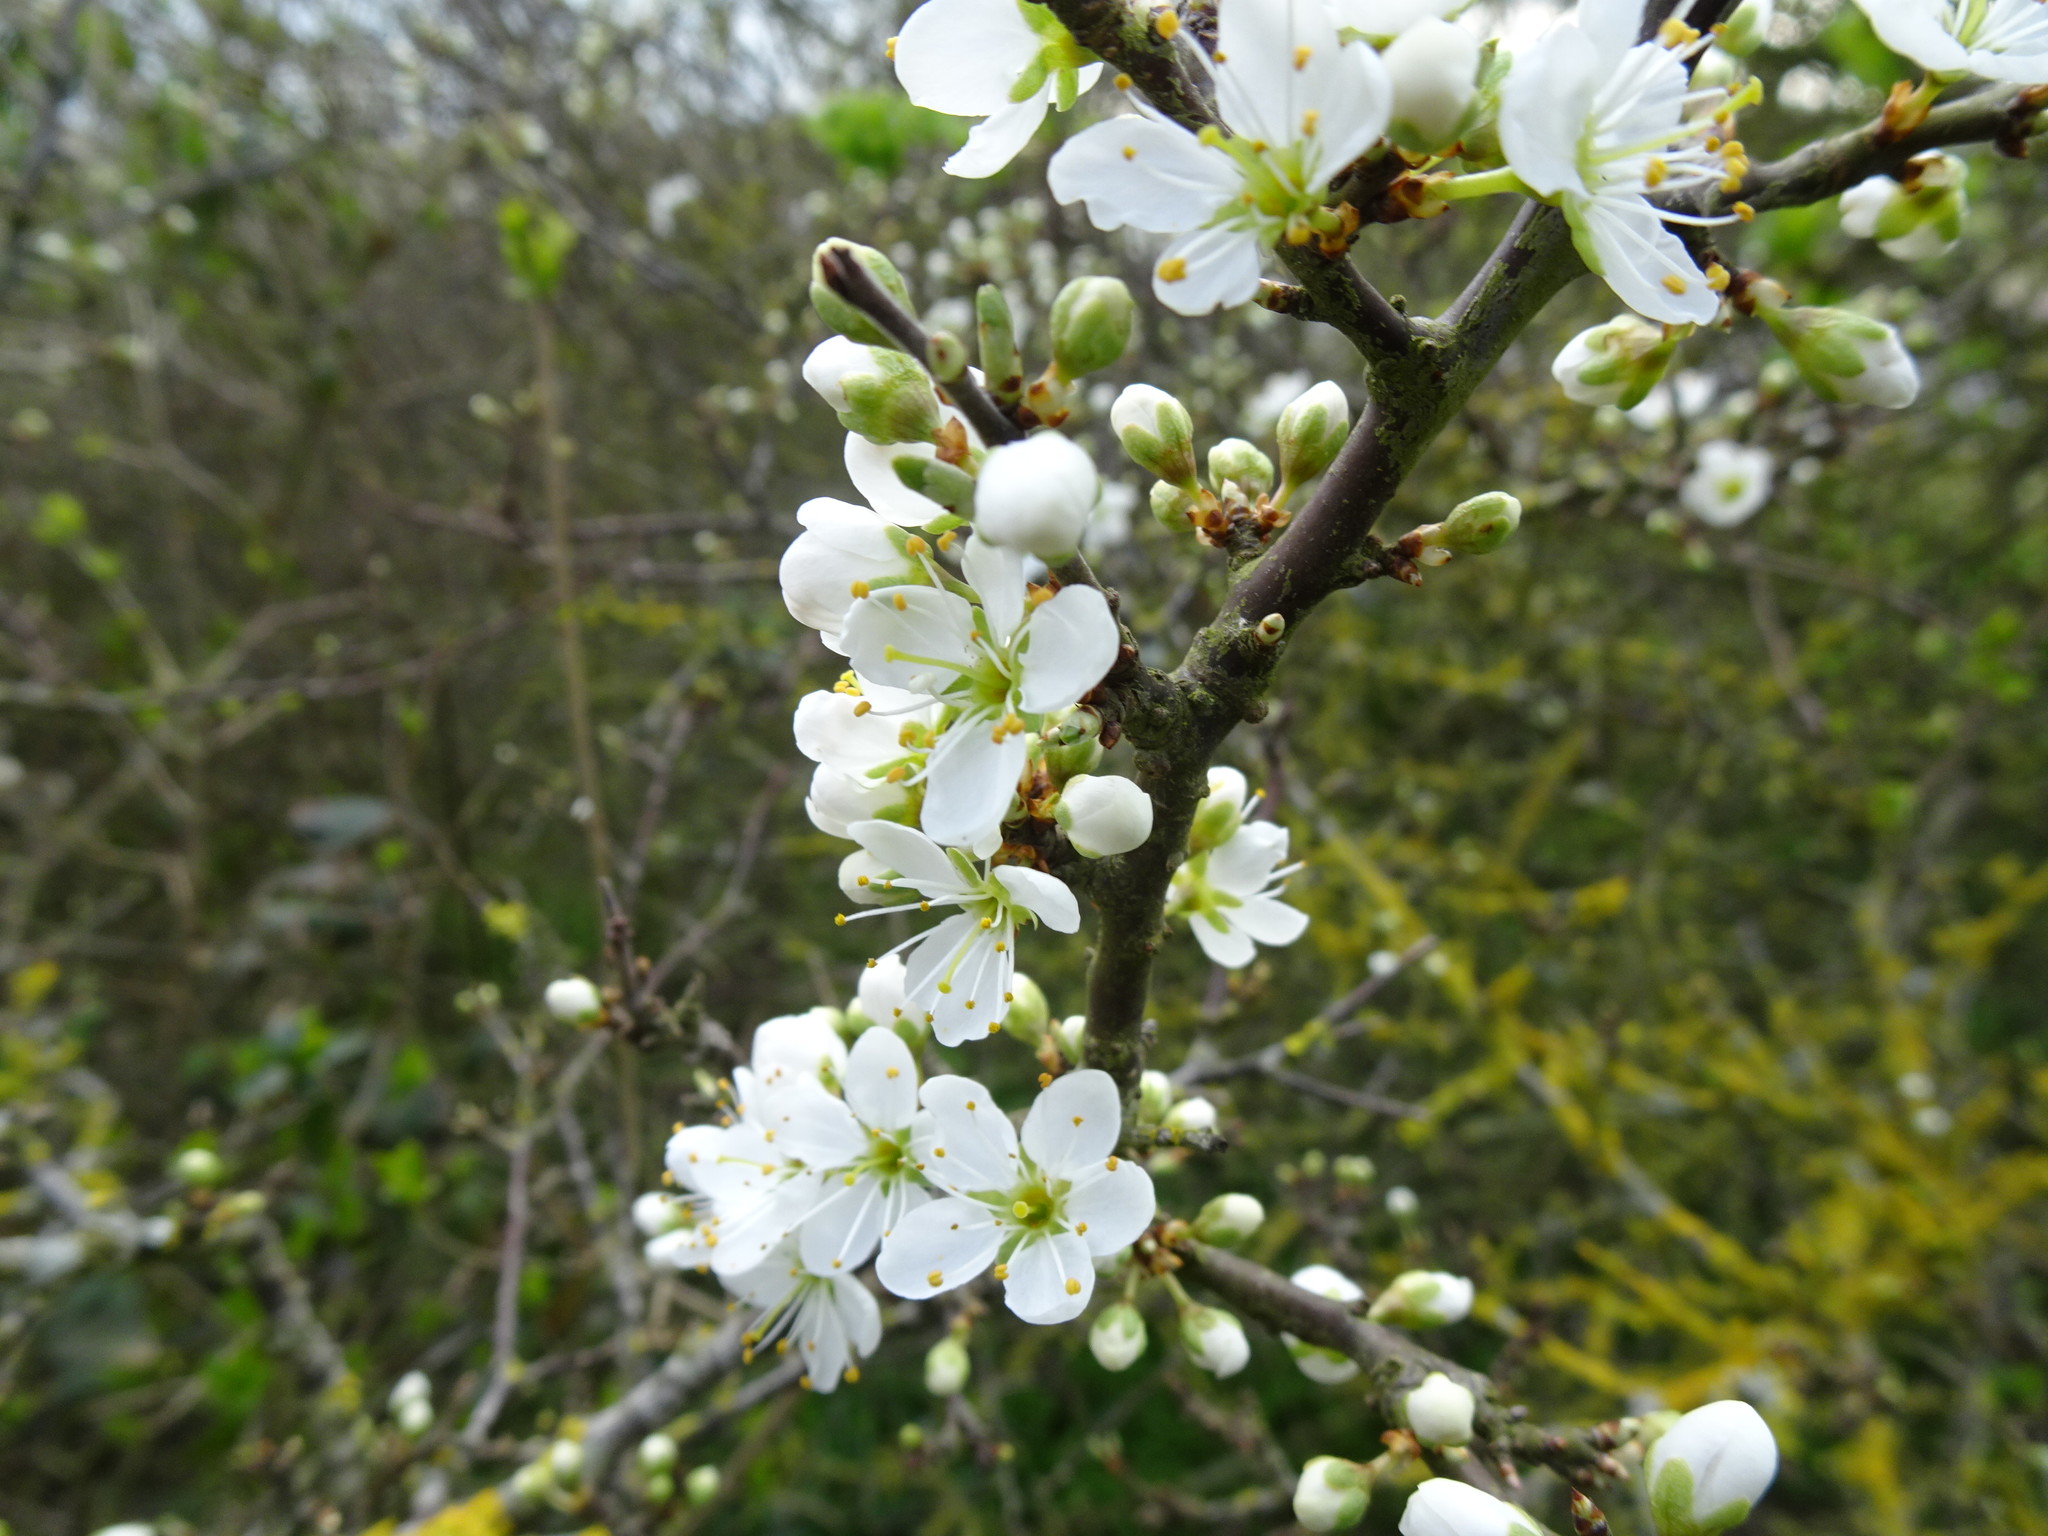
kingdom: Plantae
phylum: Tracheophyta
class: Magnoliopsida
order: Rosales
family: Rosaceae
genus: Prunus
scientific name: Prunus spinosa
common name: Blackthorn
